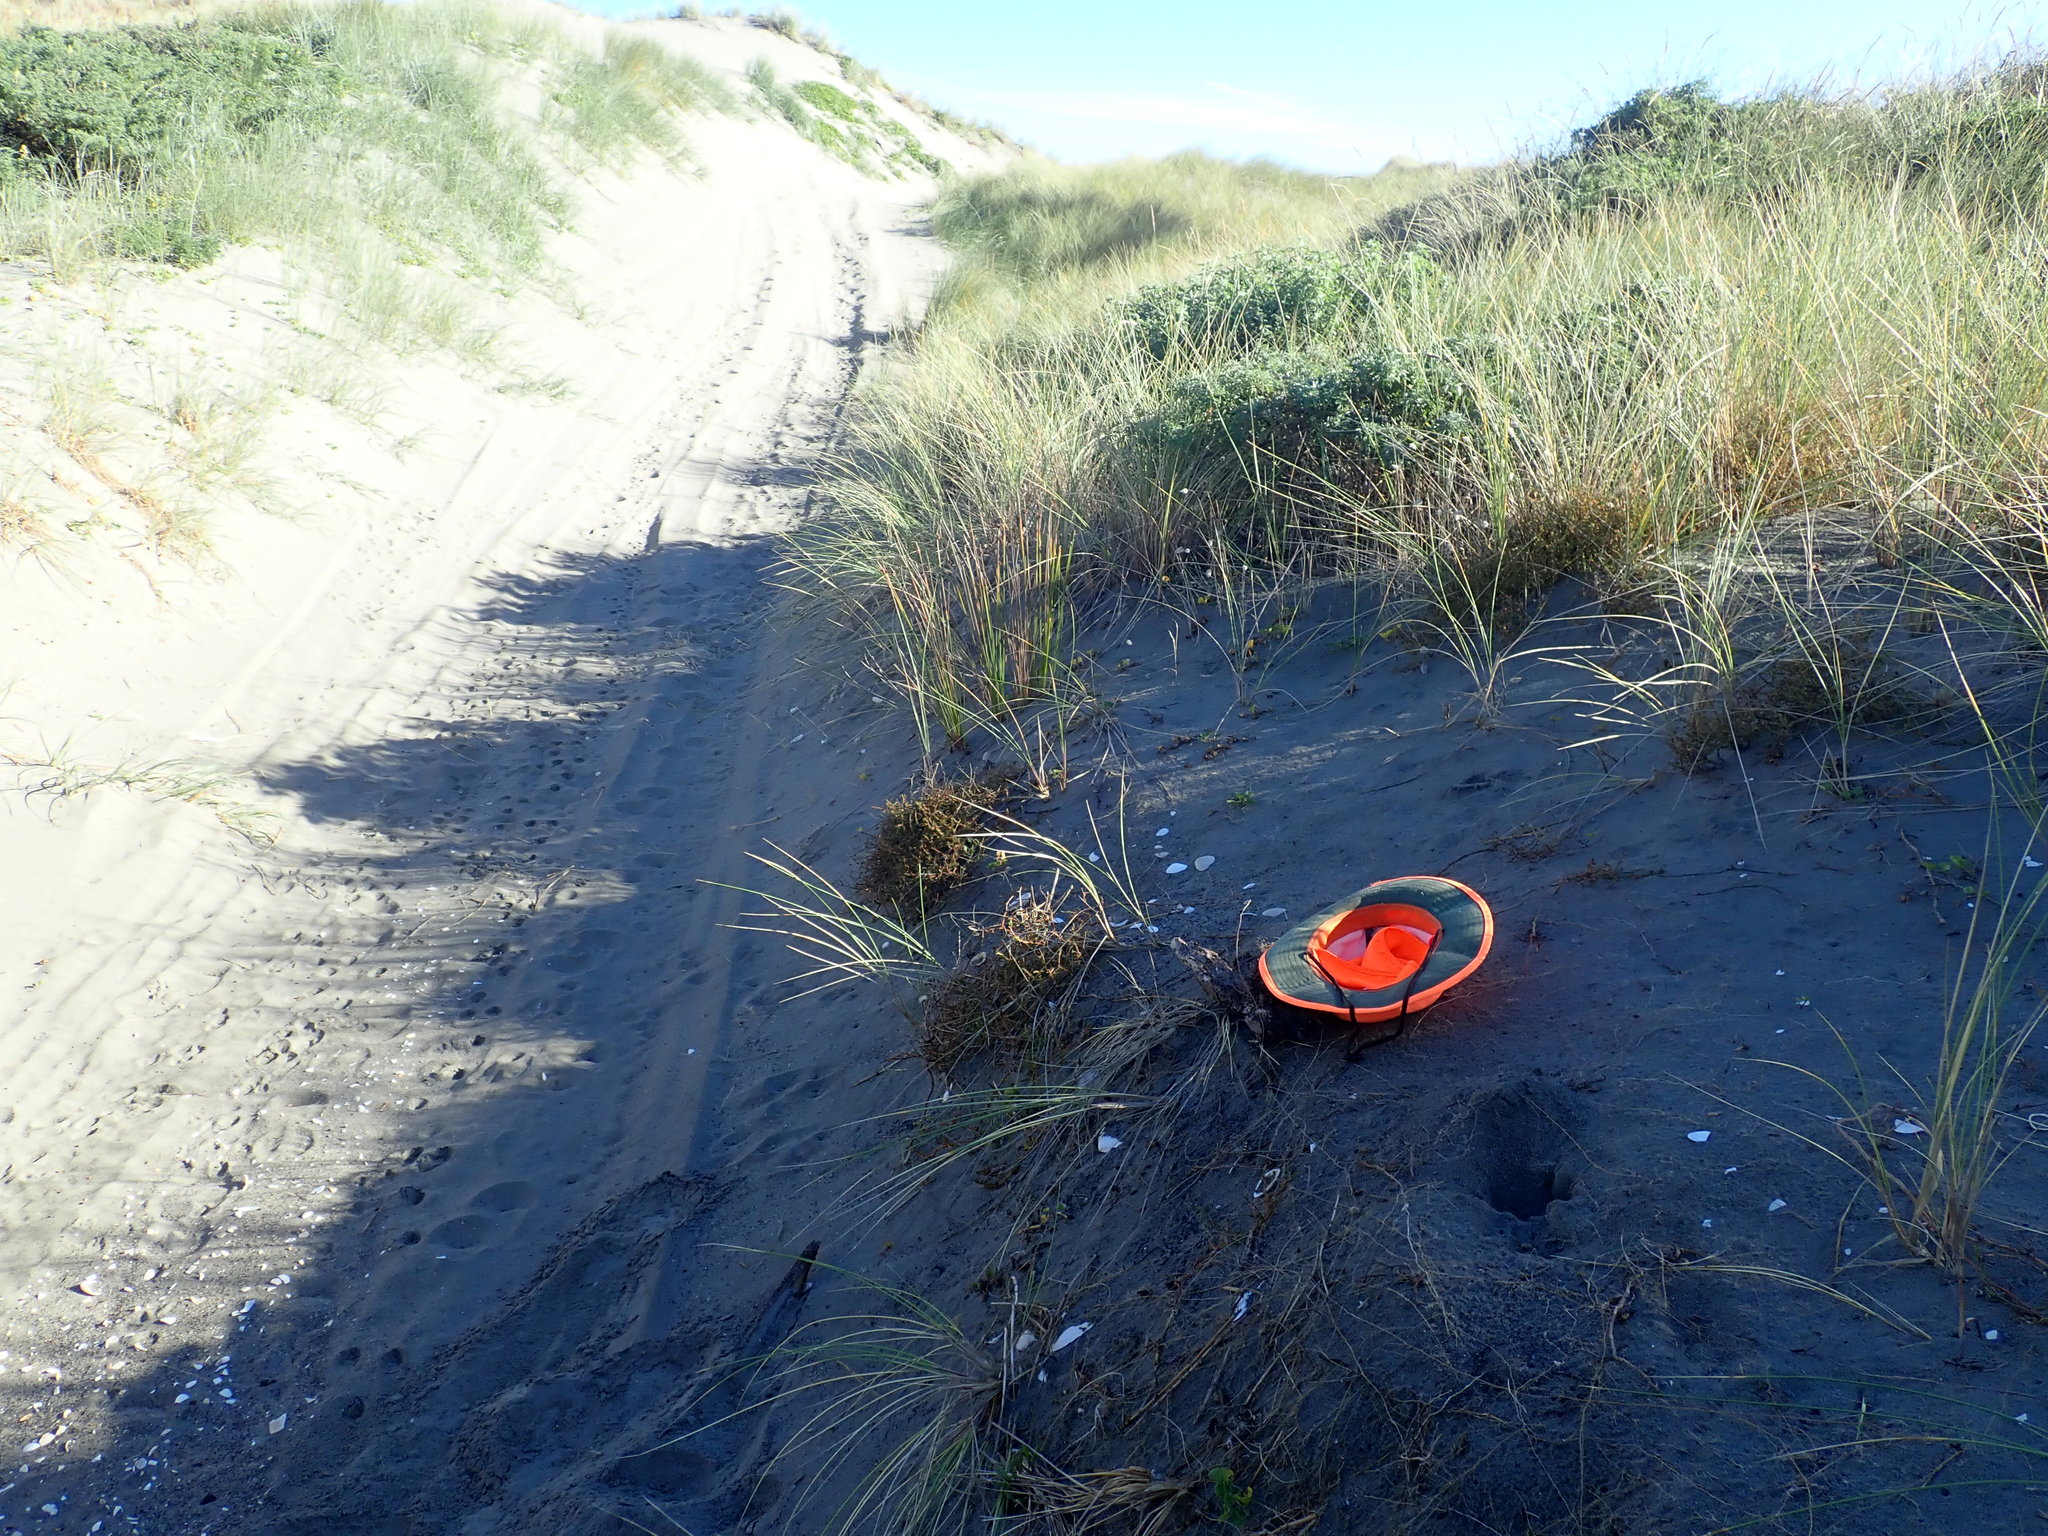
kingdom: Animalia
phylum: Arthropoda
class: Arachnida
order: Araneae
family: Pisauridae
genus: Dolomedes
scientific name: Dolomedes minor
